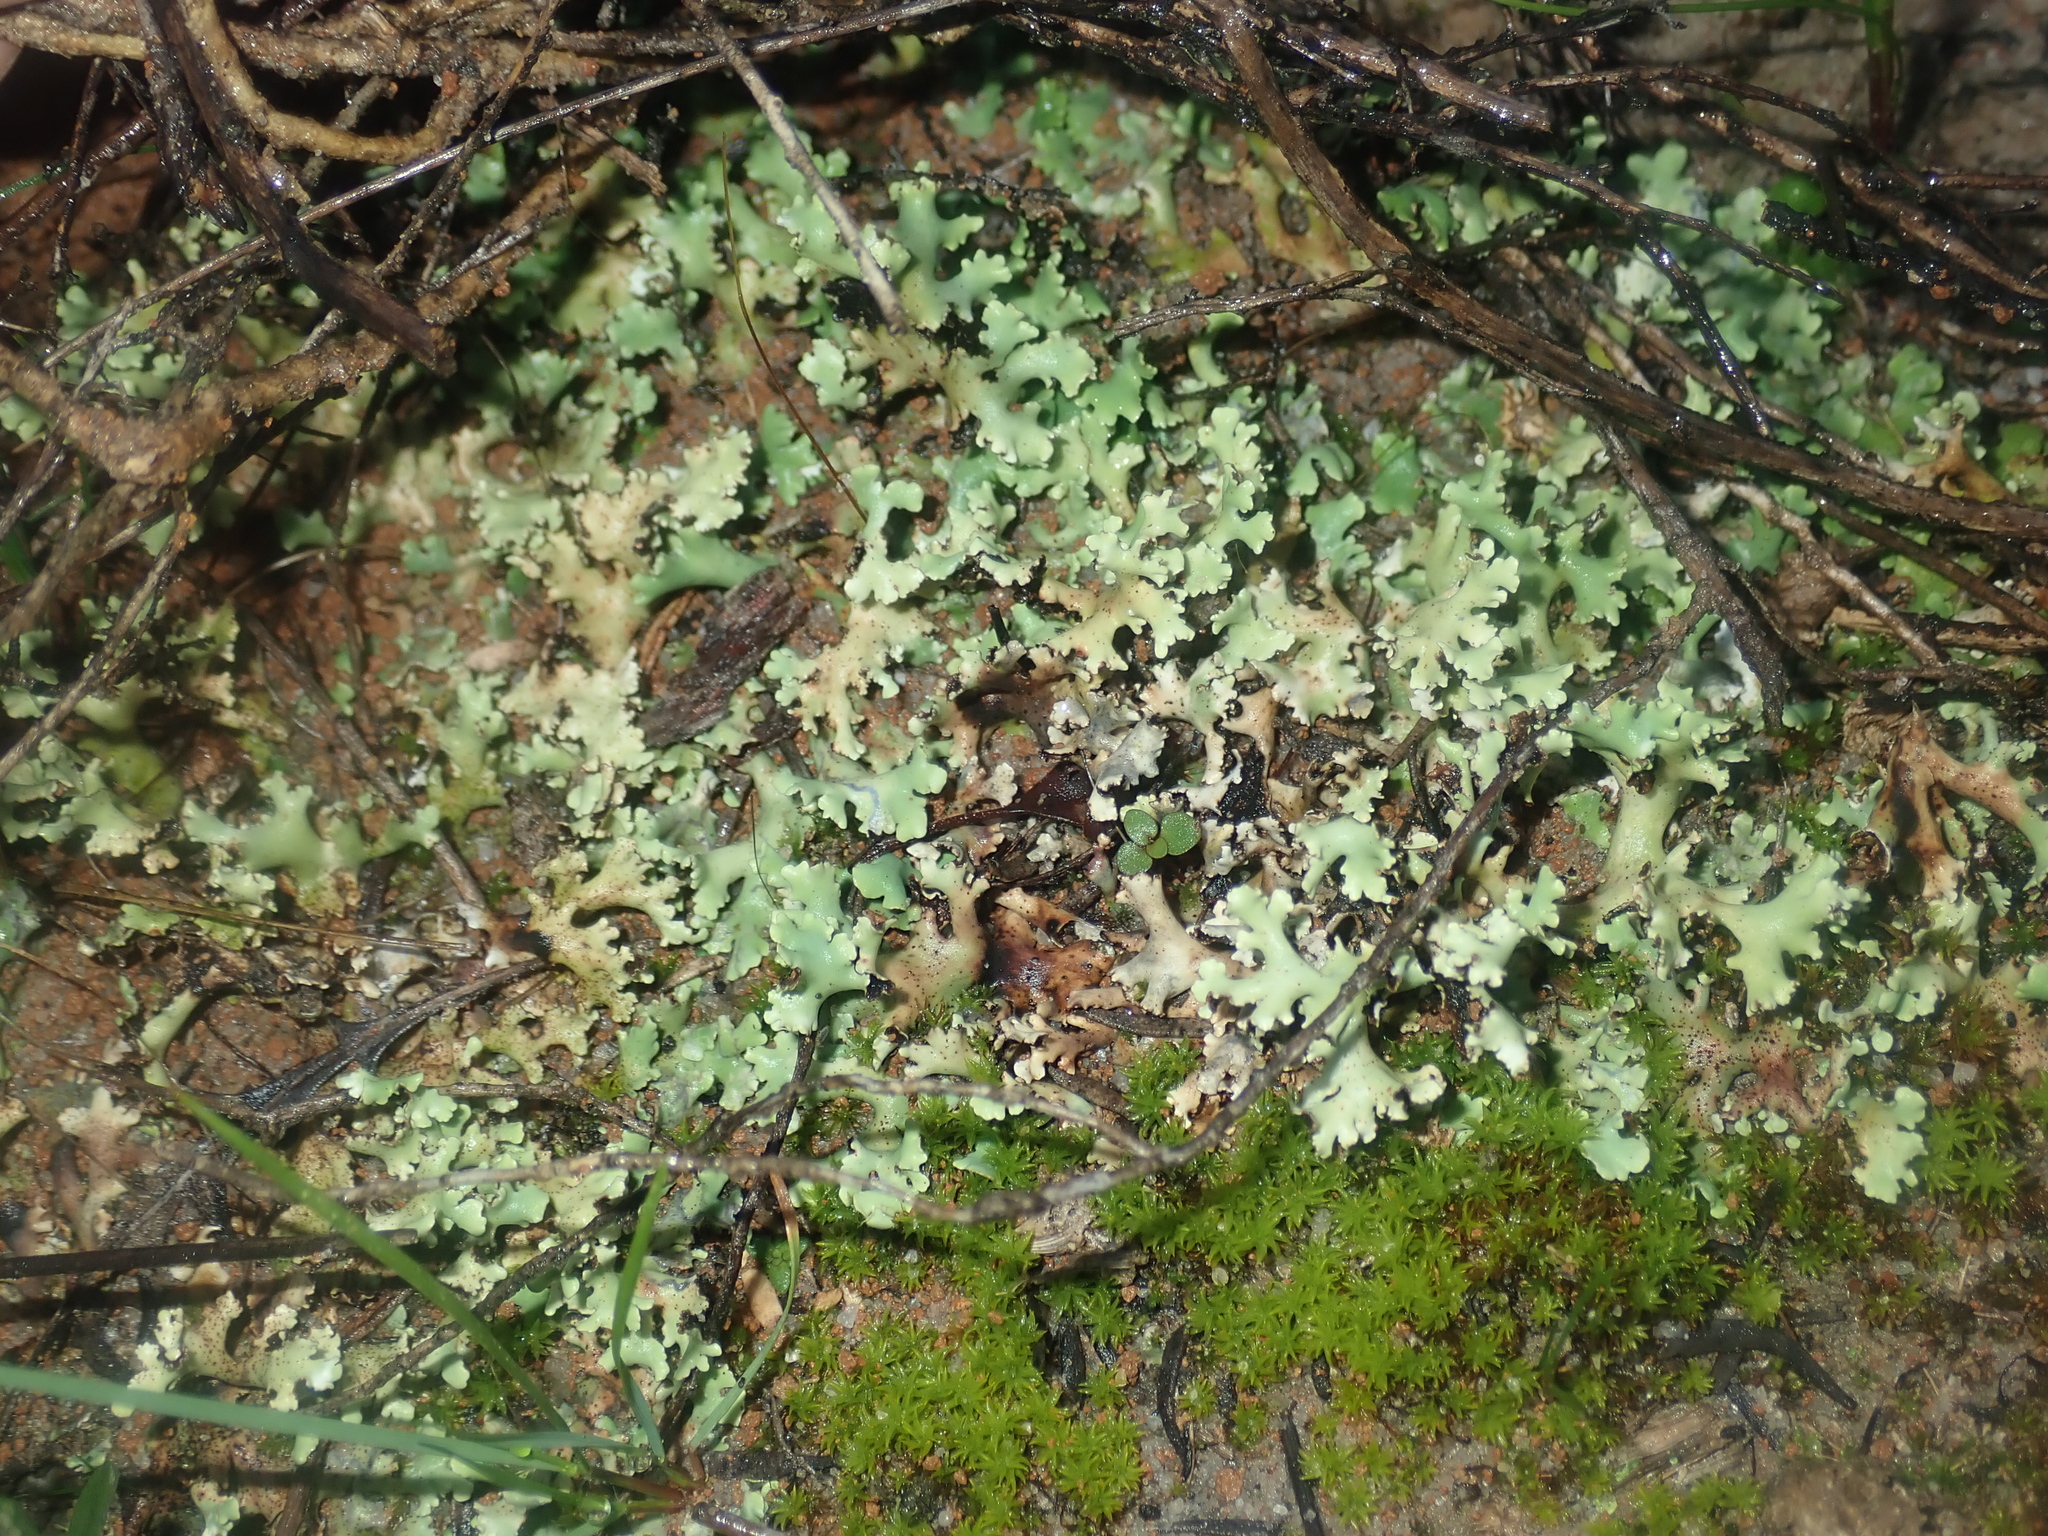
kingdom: Fungi
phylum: Ascomycota
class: Lecanoromycetes
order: Lecanorales
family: Cladoniaceae
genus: Cladia
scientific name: Cladia muelleri
